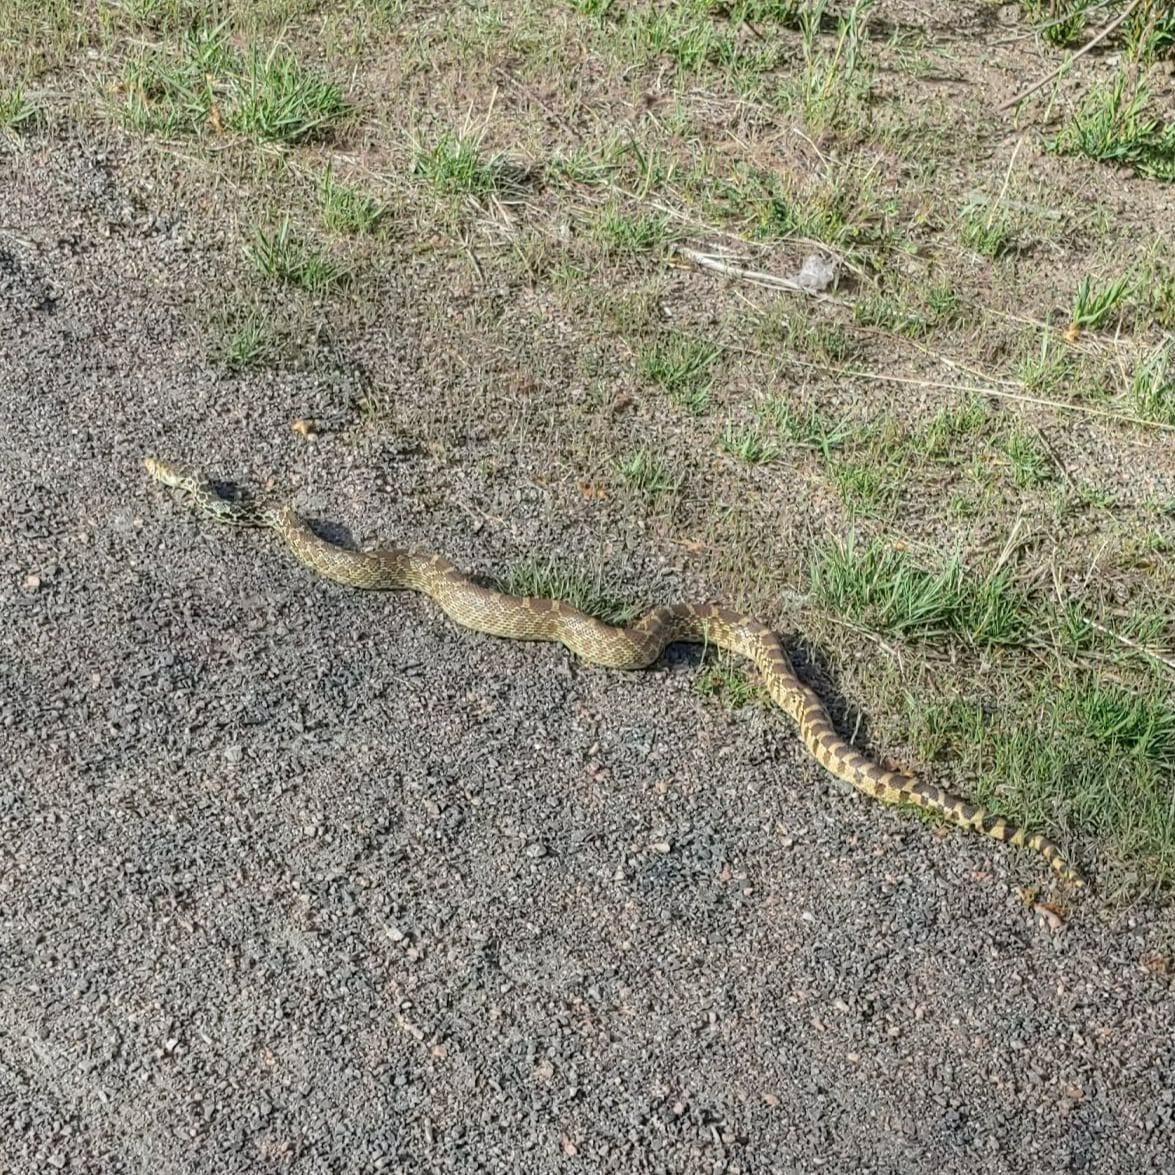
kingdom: Animalia
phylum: Chordata
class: Squamata
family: Colubridae
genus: Pituophis
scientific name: Pituophis catenifer
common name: Gopher snake
